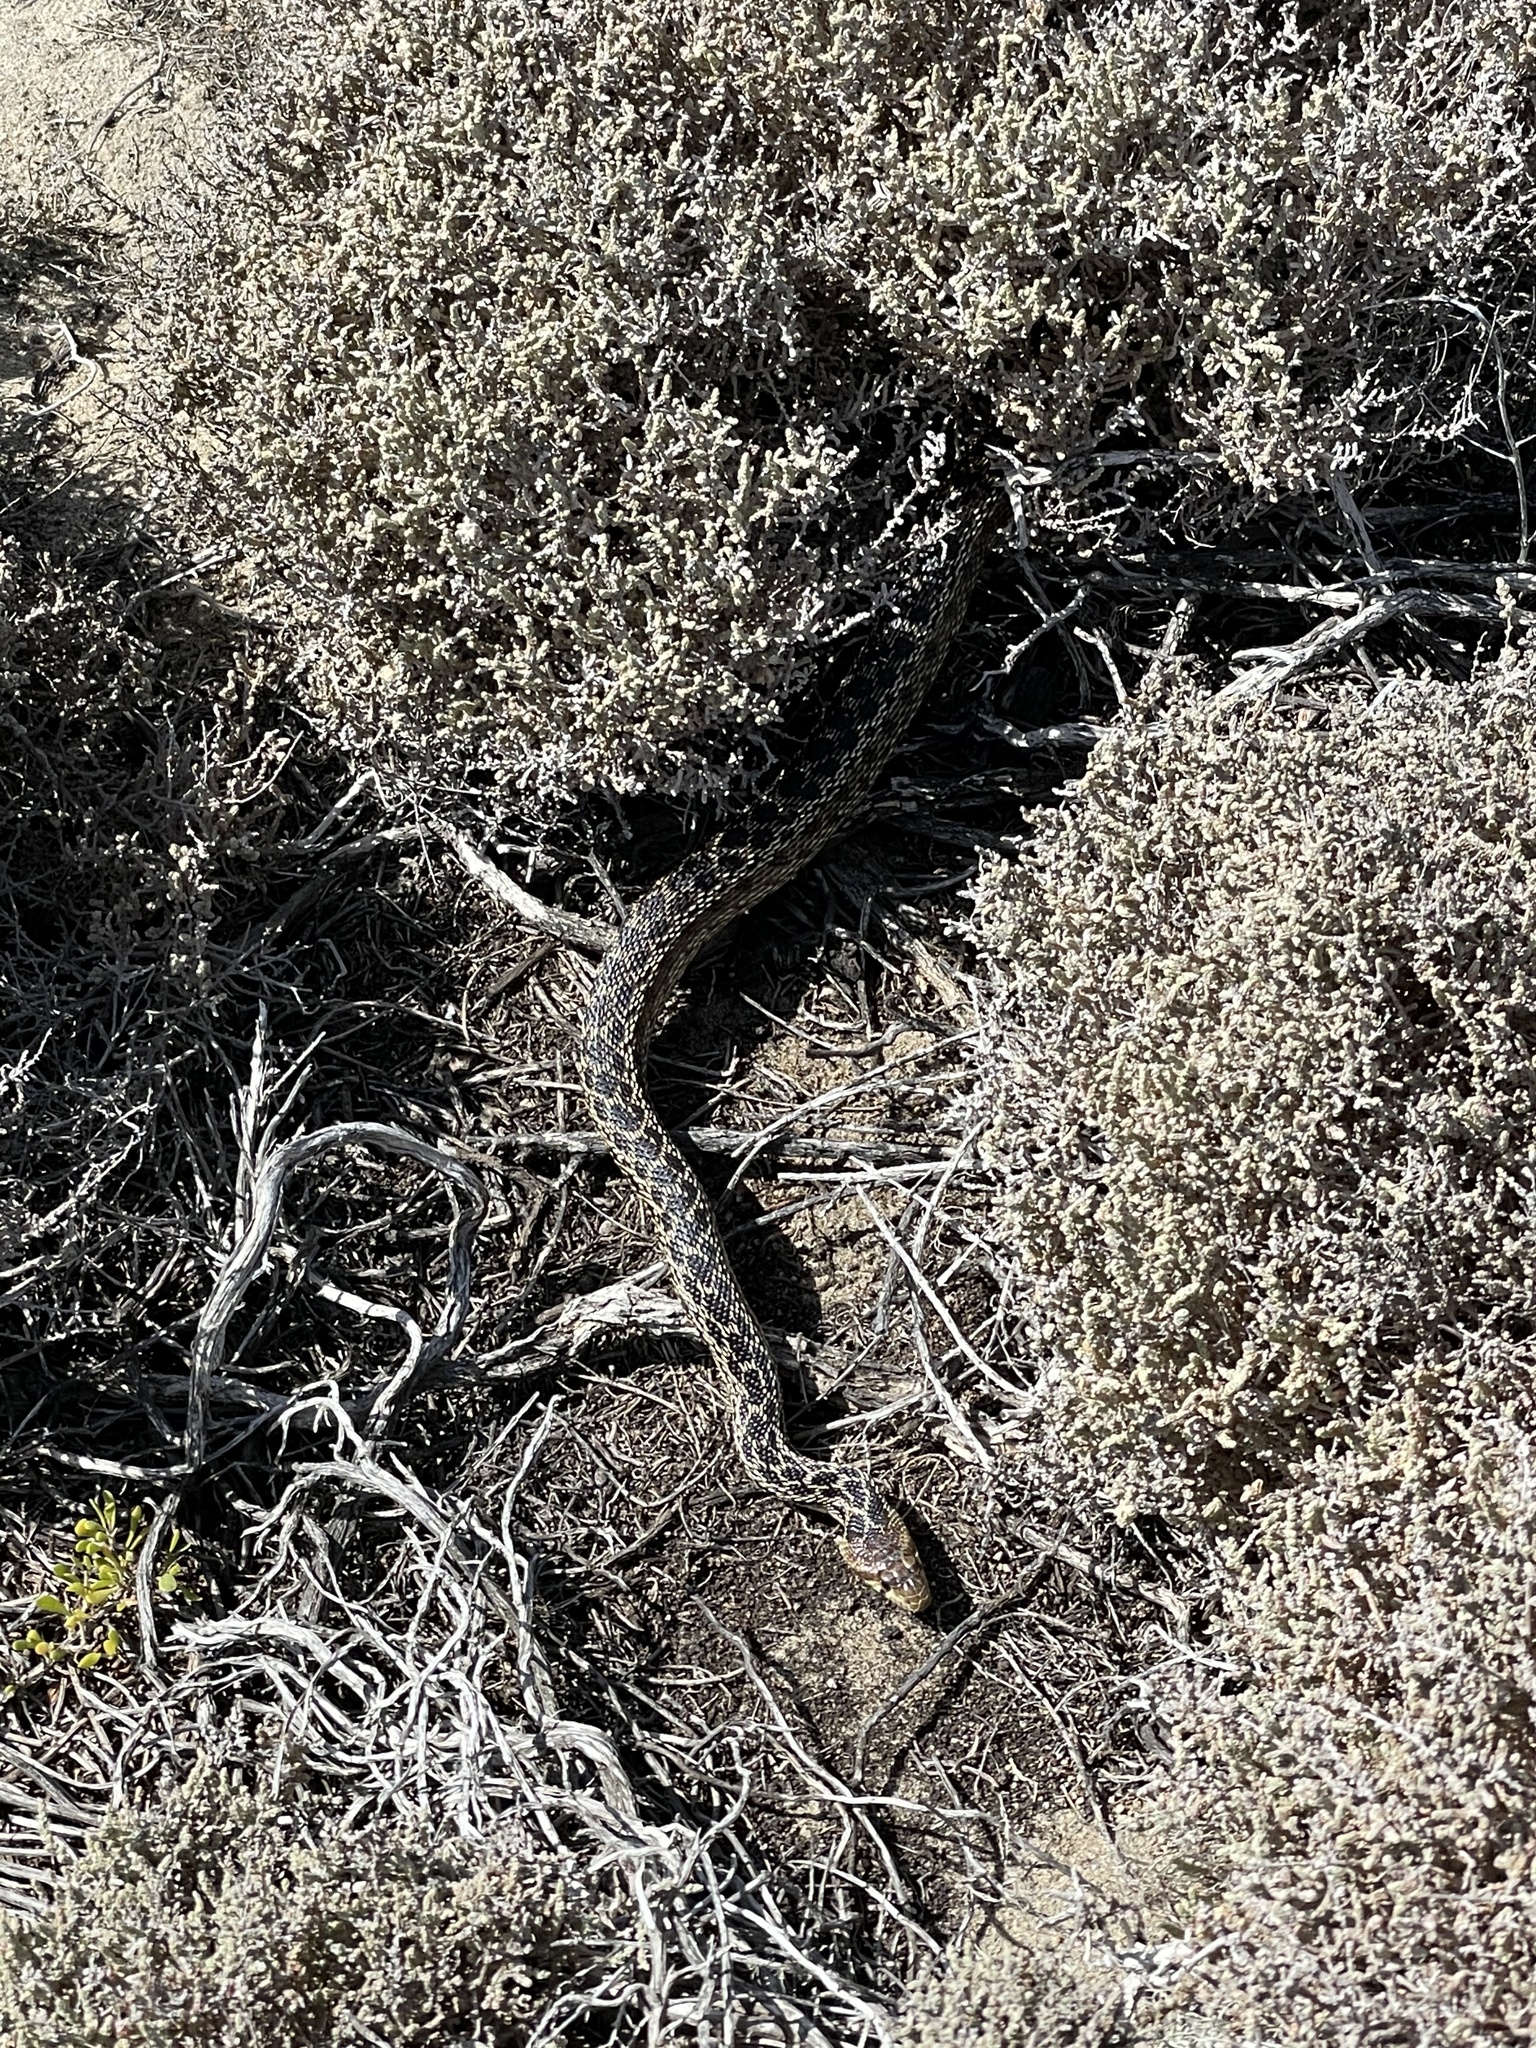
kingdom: Animalia
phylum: Chordata
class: Squamata
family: Colubridae
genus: Pituophis
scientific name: Pituophis catenifer
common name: Gopher snake
